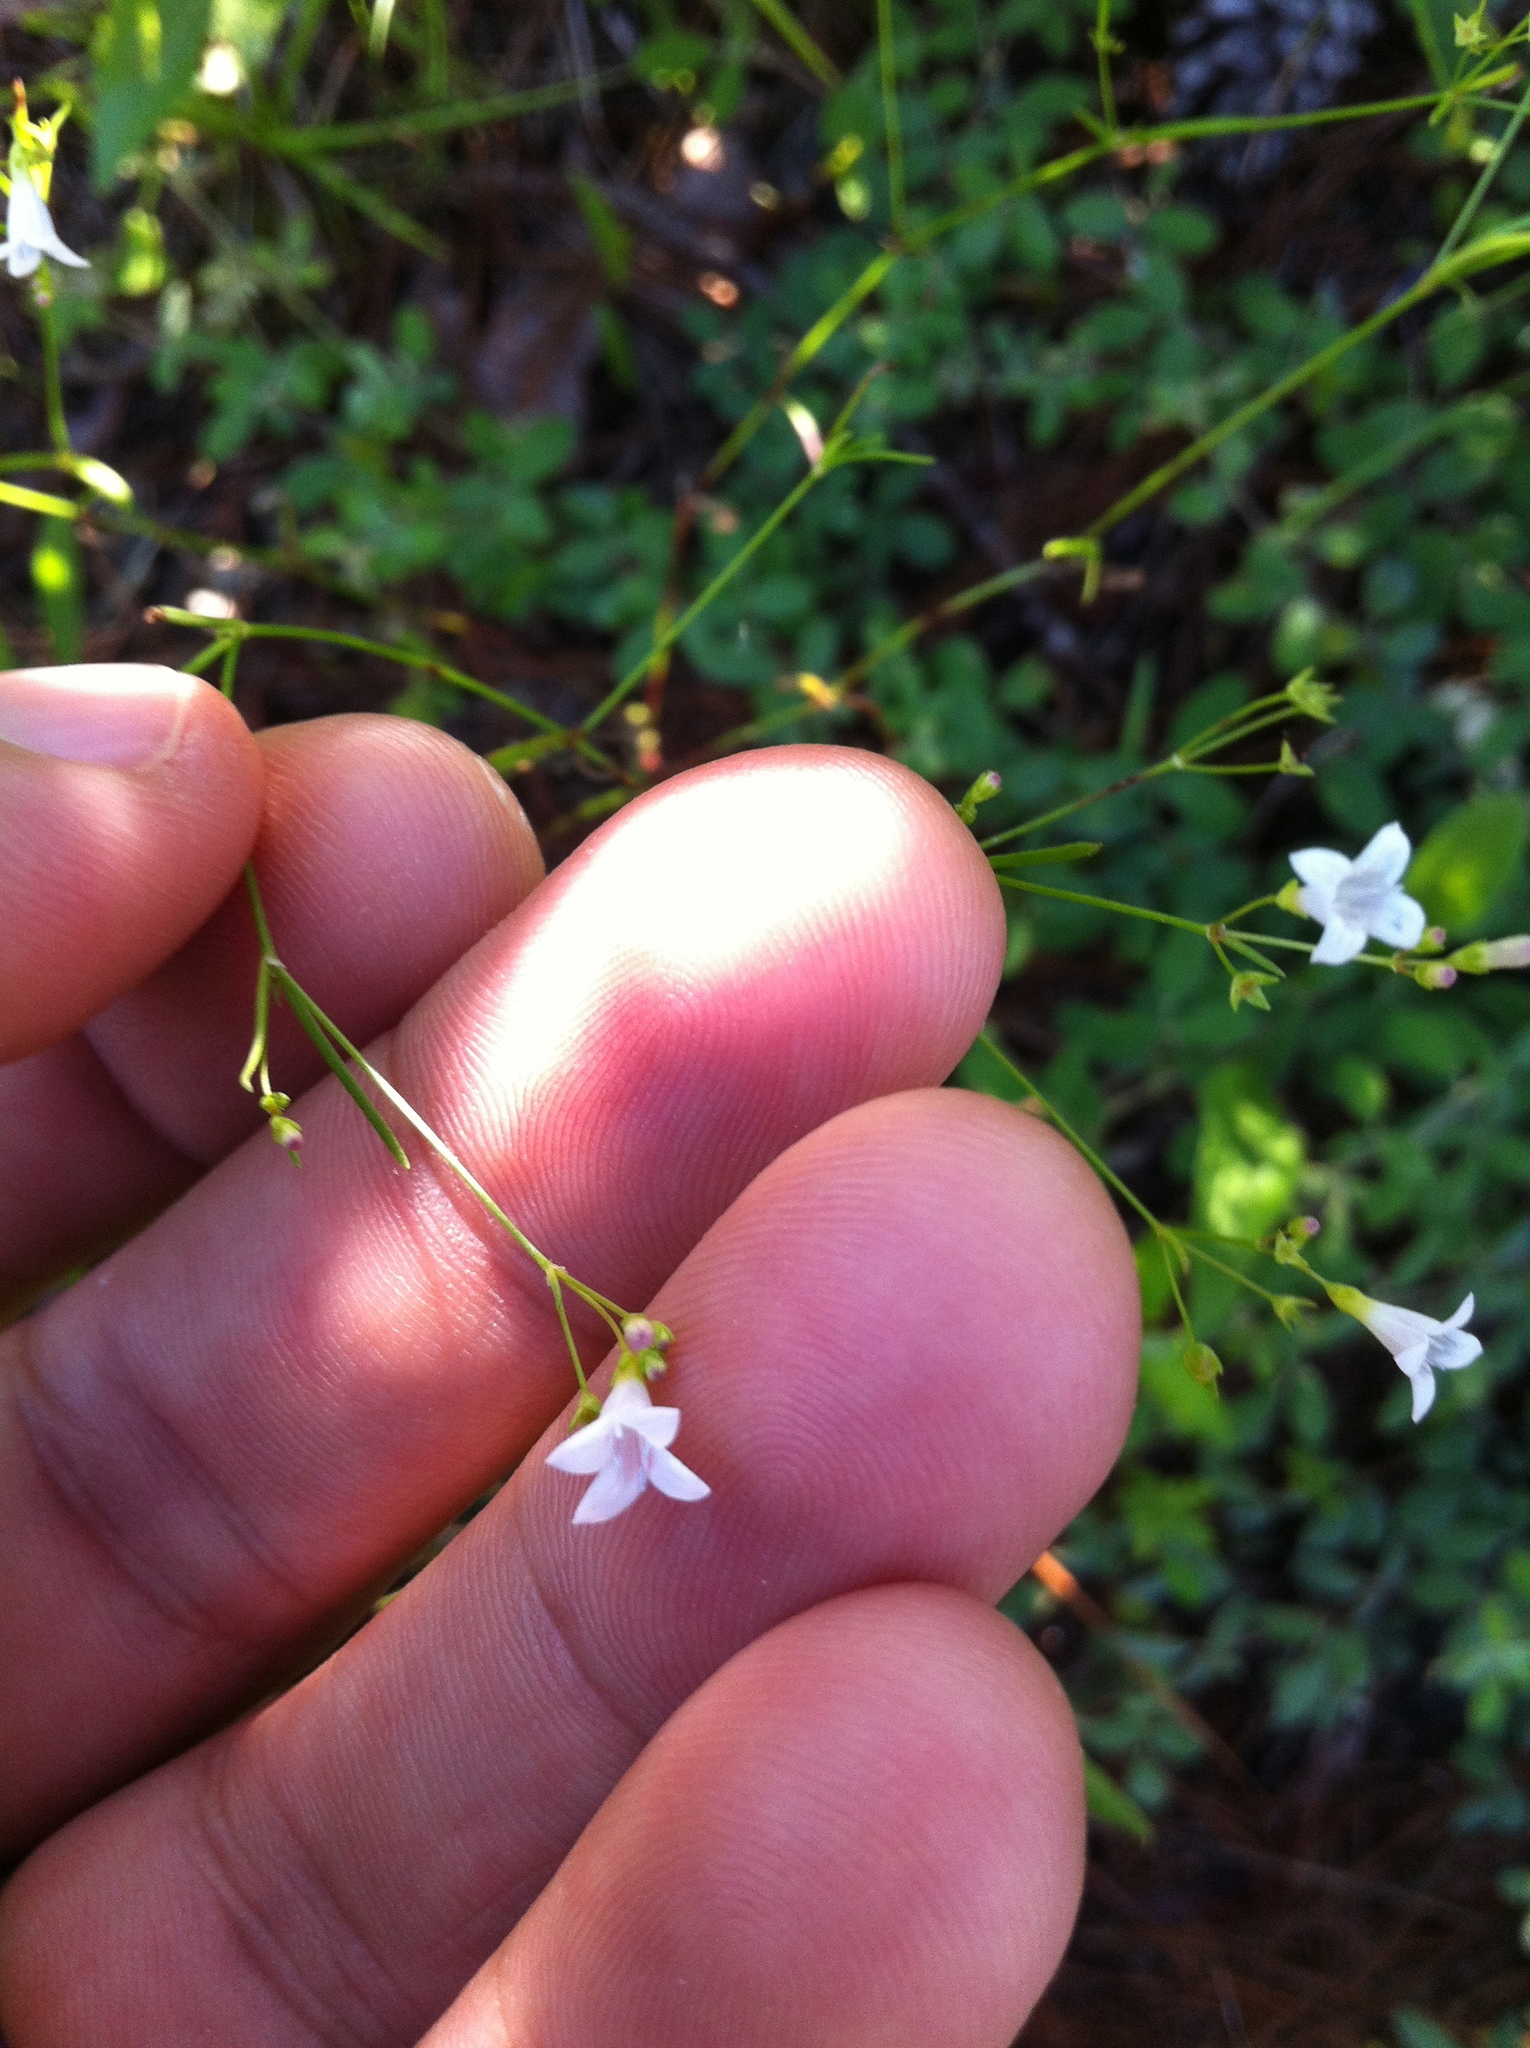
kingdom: Plantae
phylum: Tracheophyta
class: Magnoliopsida
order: Gentianales
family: Rubiaceae
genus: Houstonia
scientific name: Houstonia longifolia
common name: Long-leaved bluets
